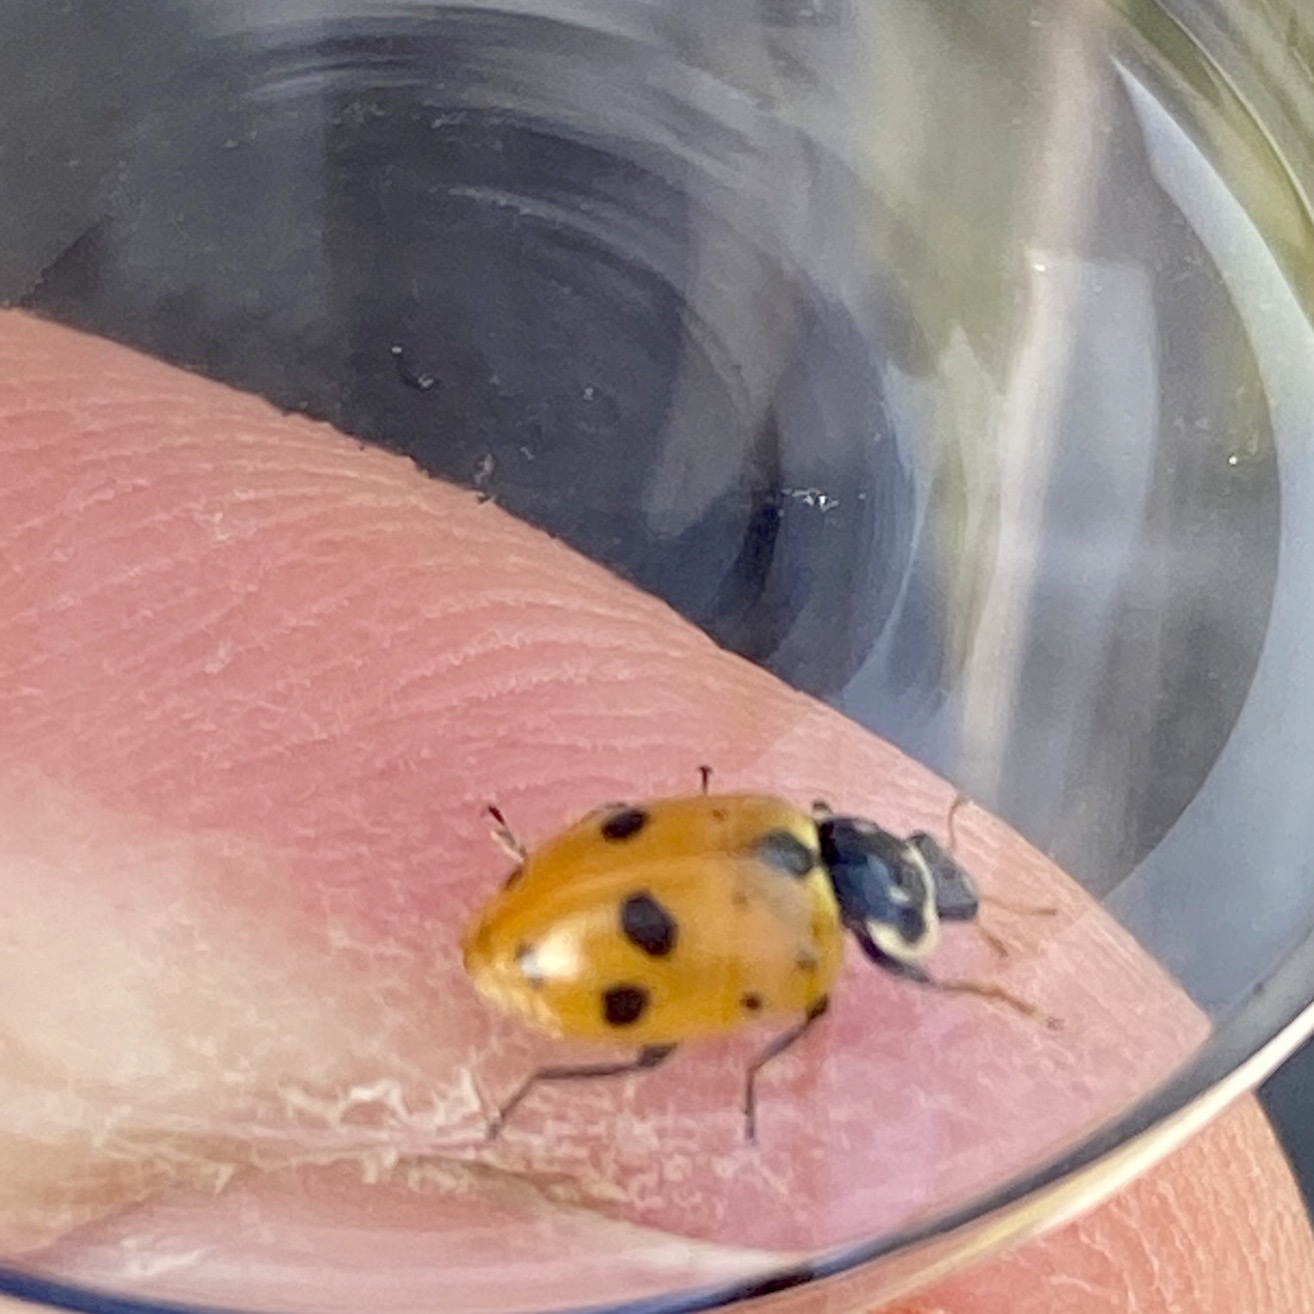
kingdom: Animalia
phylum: Arthropoda
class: Insecta
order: Coleoptera
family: Coccinellidae
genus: Hippodamia
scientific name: Hippodamia variegata
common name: Ladybird beetle
